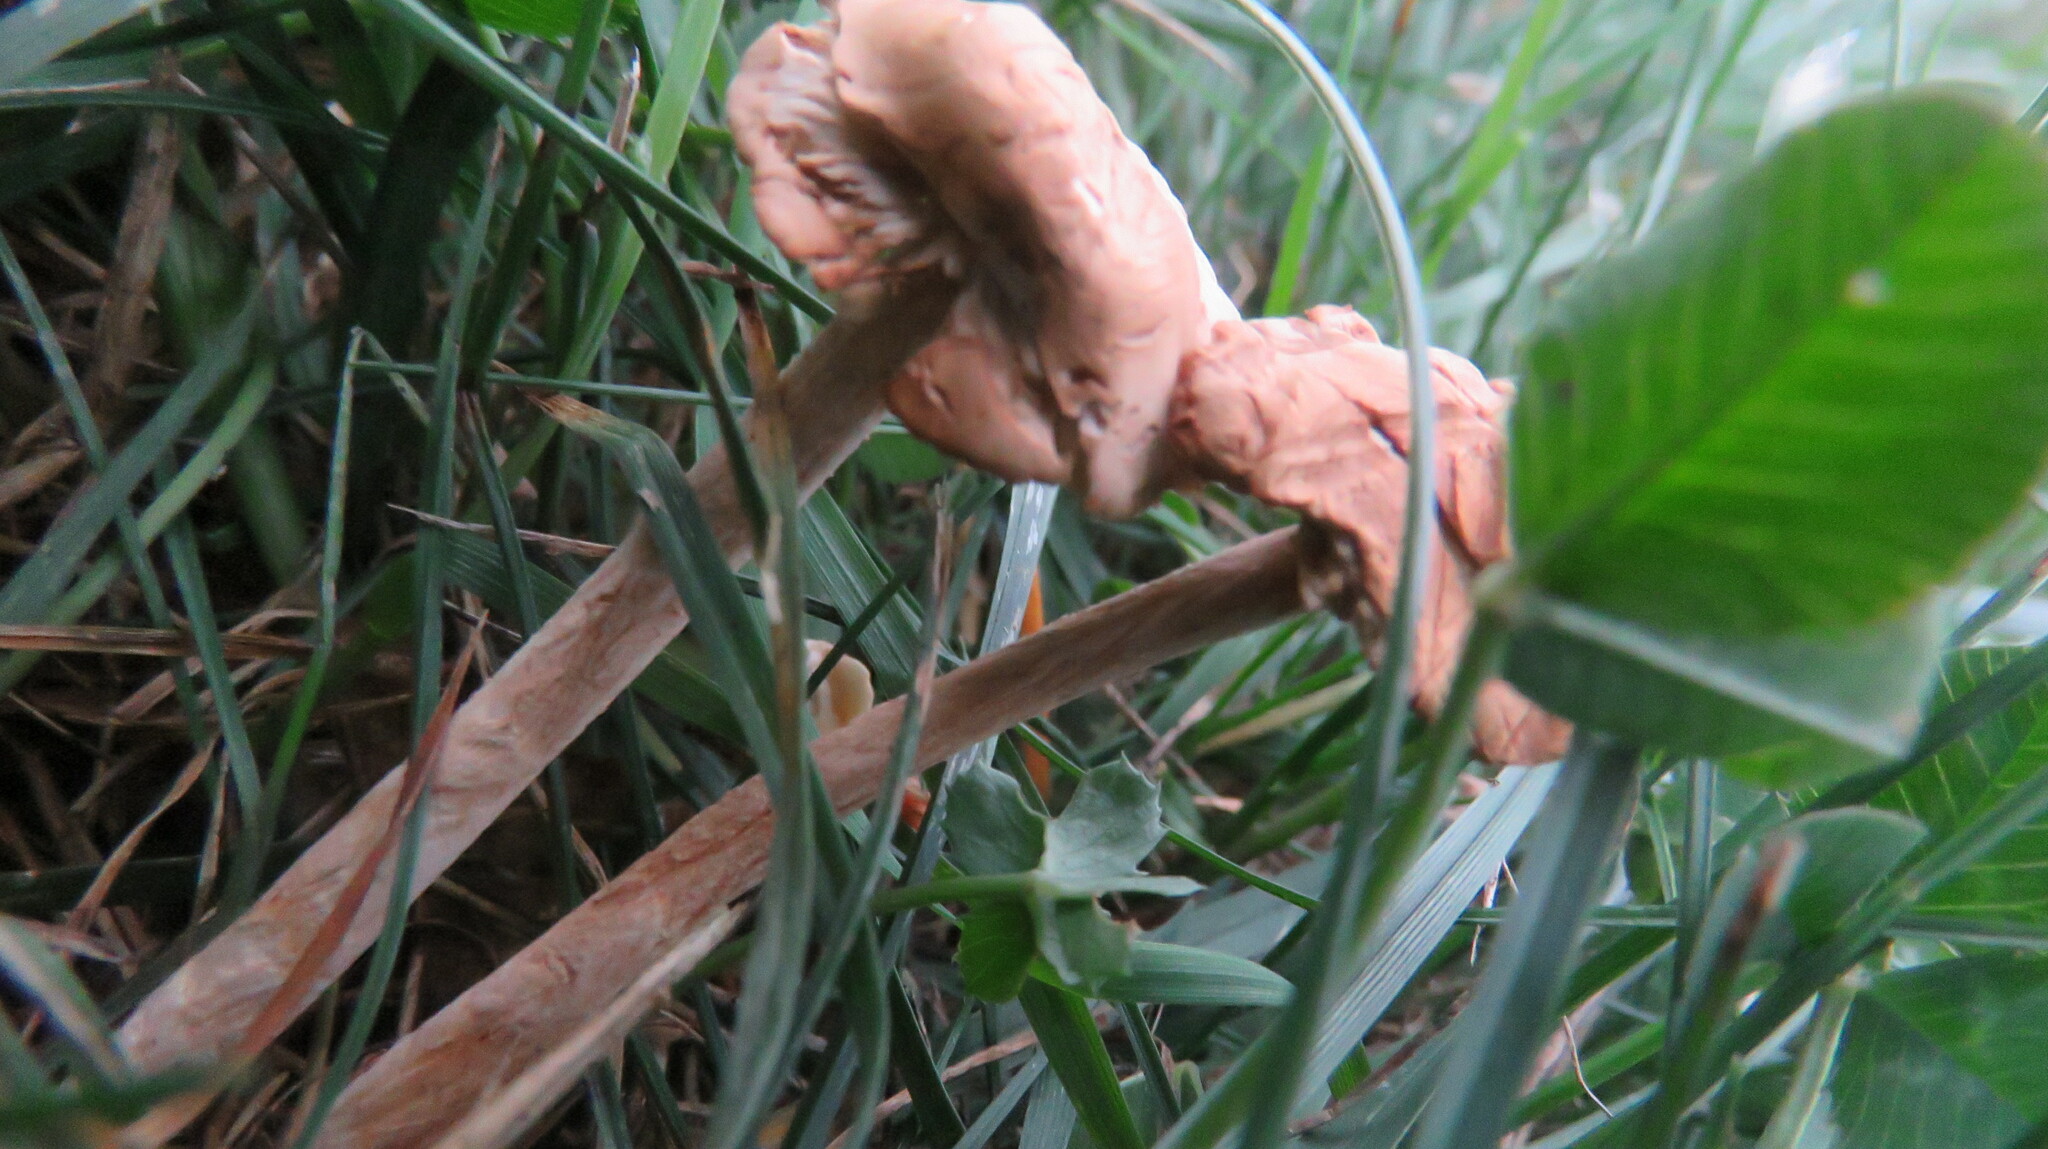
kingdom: Fungi
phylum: Basidiomycota
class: Agaricomycetes
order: Agaricales
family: Marasmiaceae
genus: Marasmius
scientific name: Marasmius oreades
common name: Fairy ring champignon
